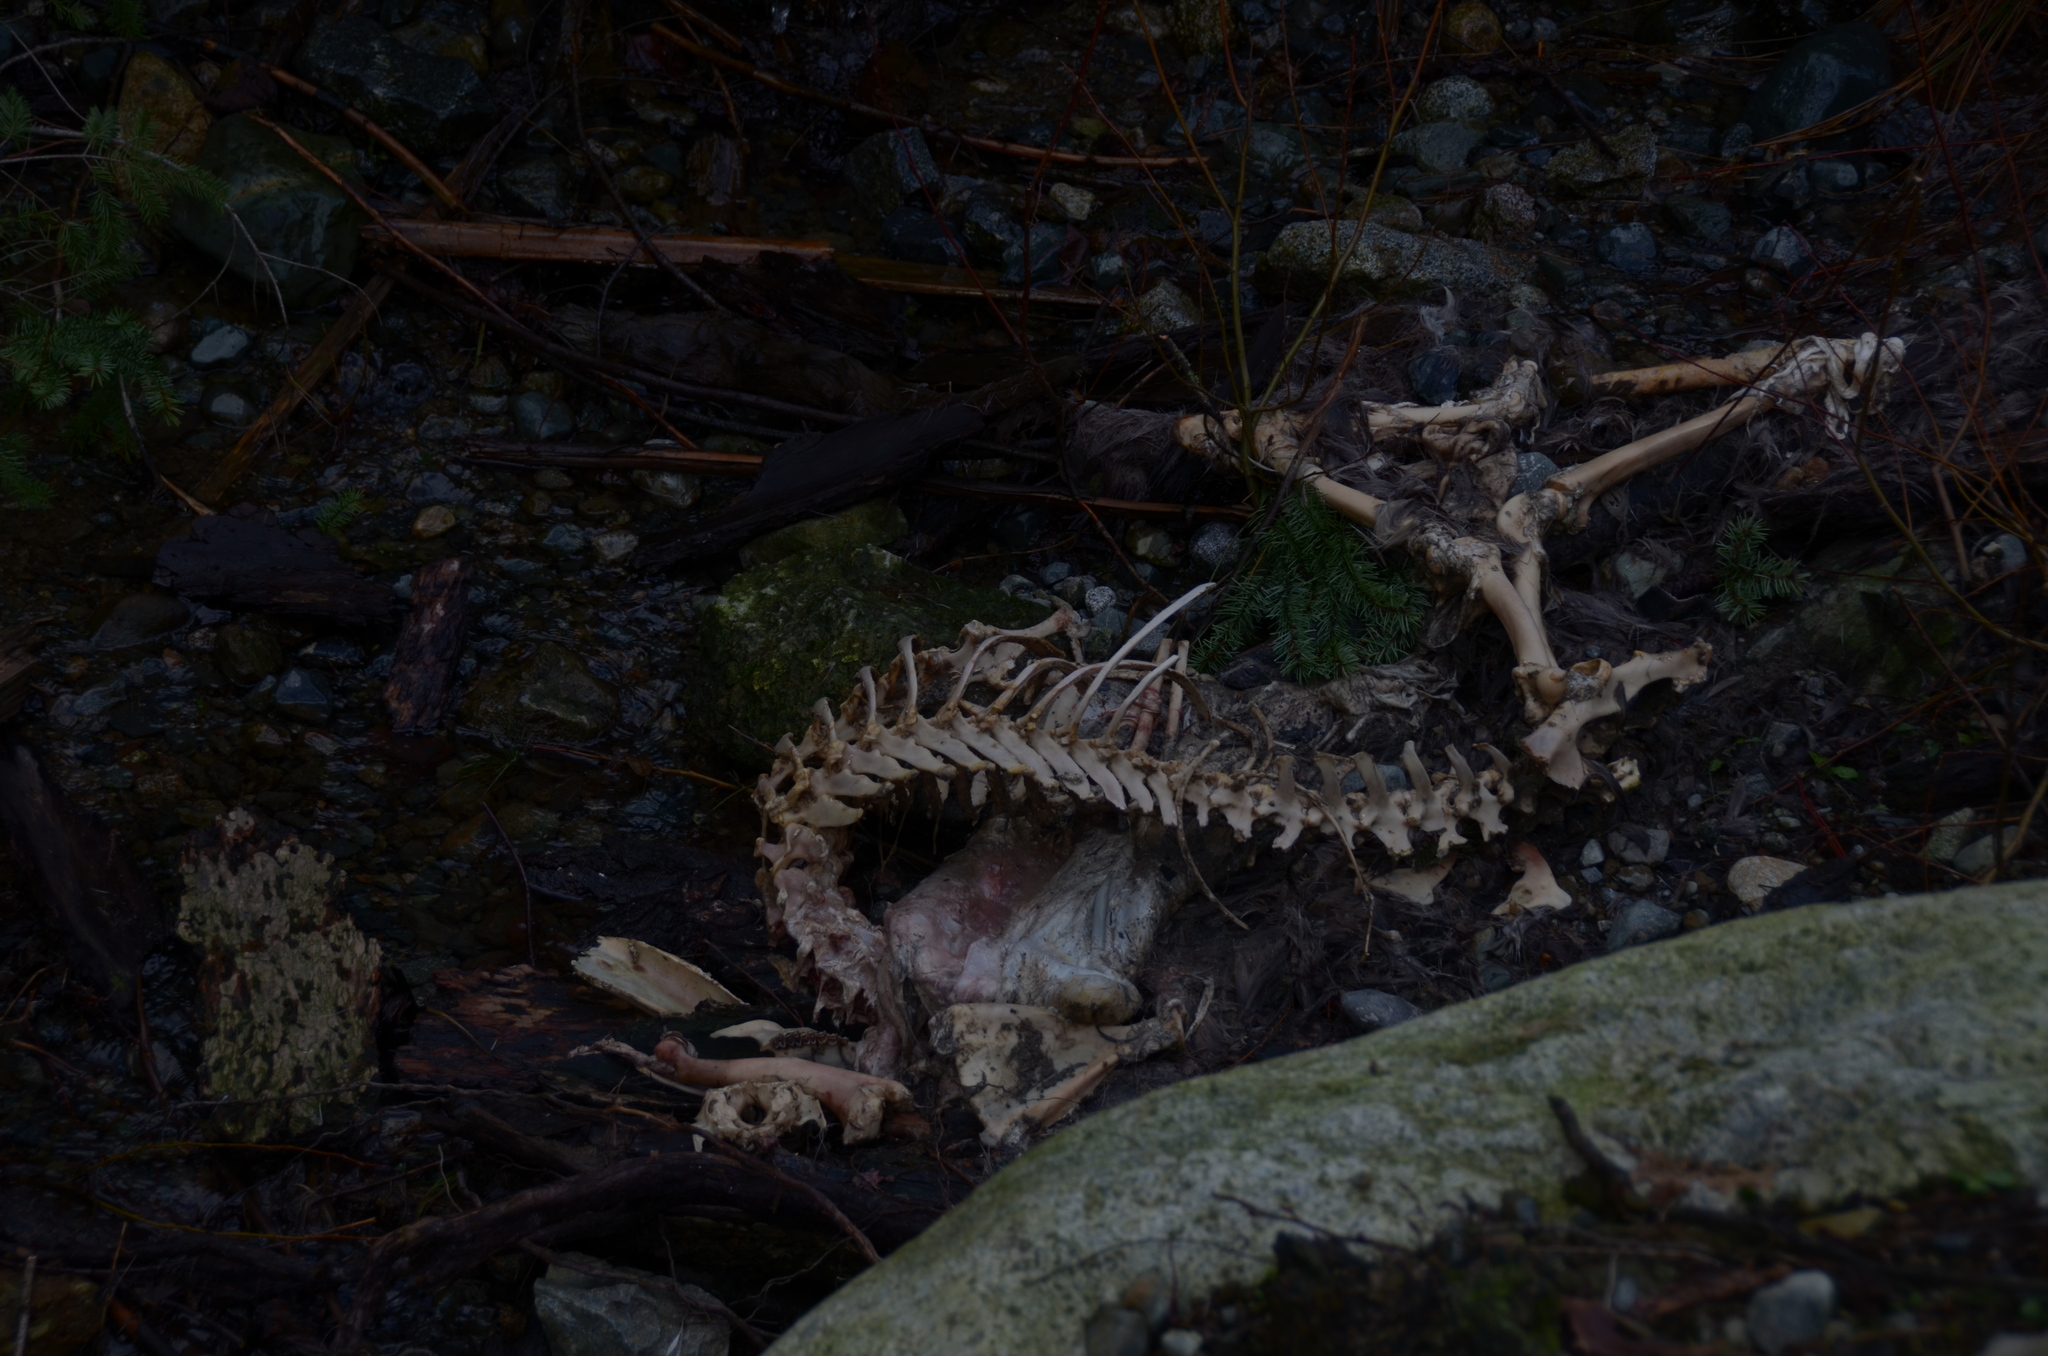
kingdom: Animalia
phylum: Chordata
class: Mammalia
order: Artiodactyla
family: Cervidae
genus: Odocoileus
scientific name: Odocoileus hemionus
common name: Mule deer
